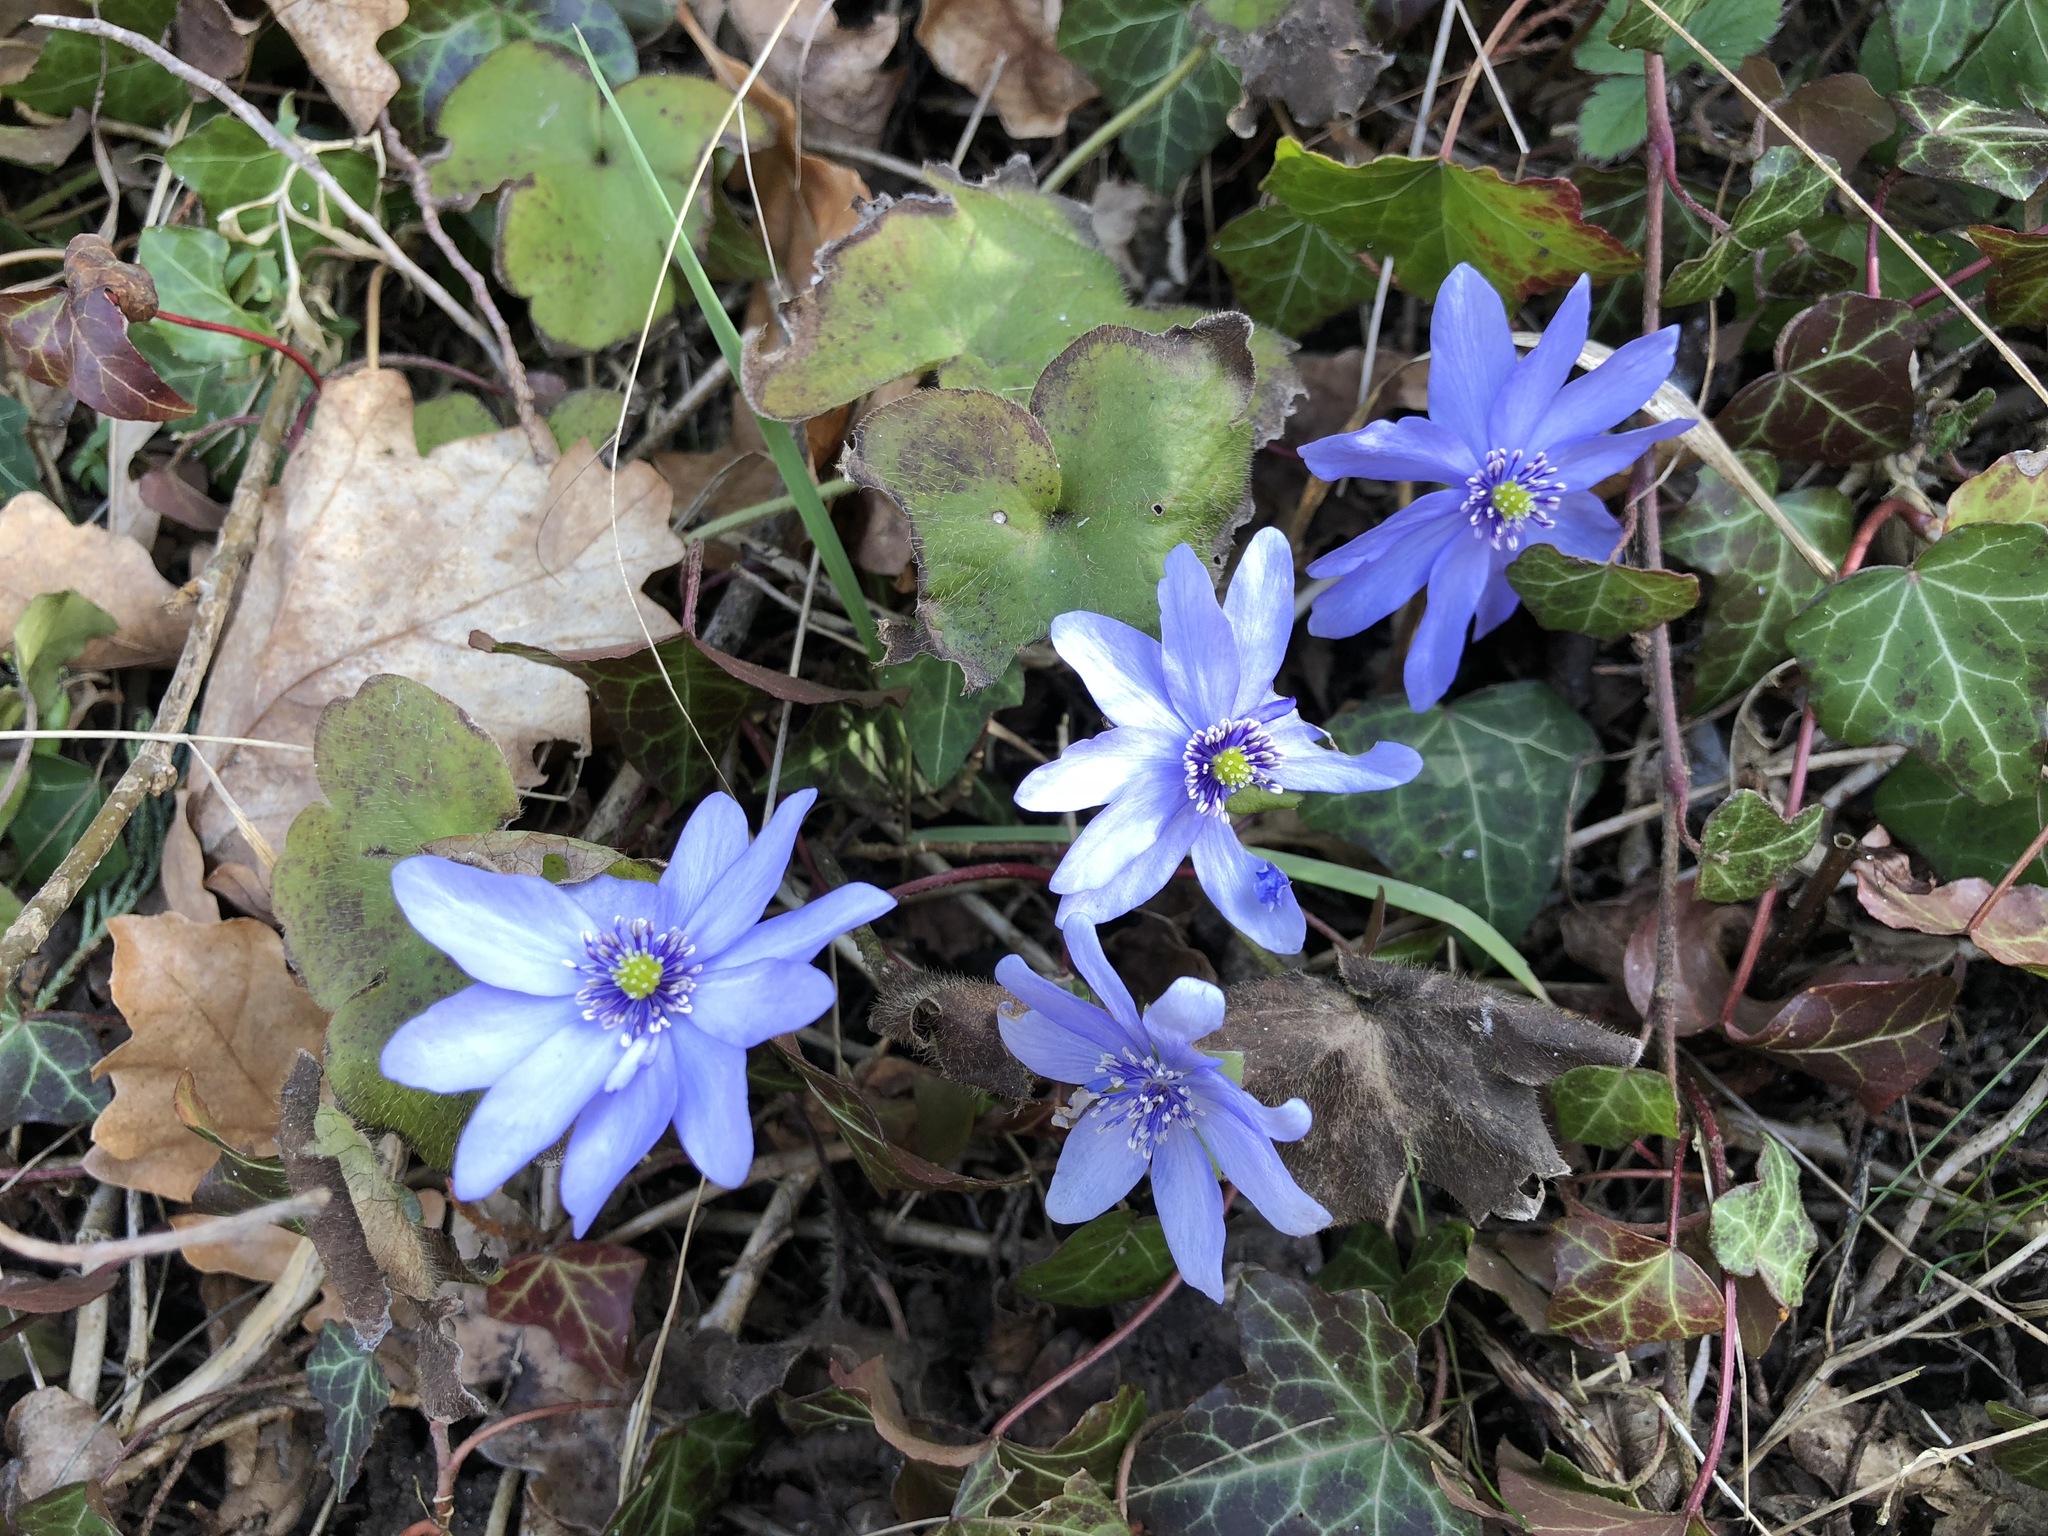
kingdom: Plantae
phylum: Tracheophyta
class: Magnoliopsida
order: Ranunculales
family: Ranunculaceae
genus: Hepatica
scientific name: Hepatica nobilis
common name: Liverleaf
